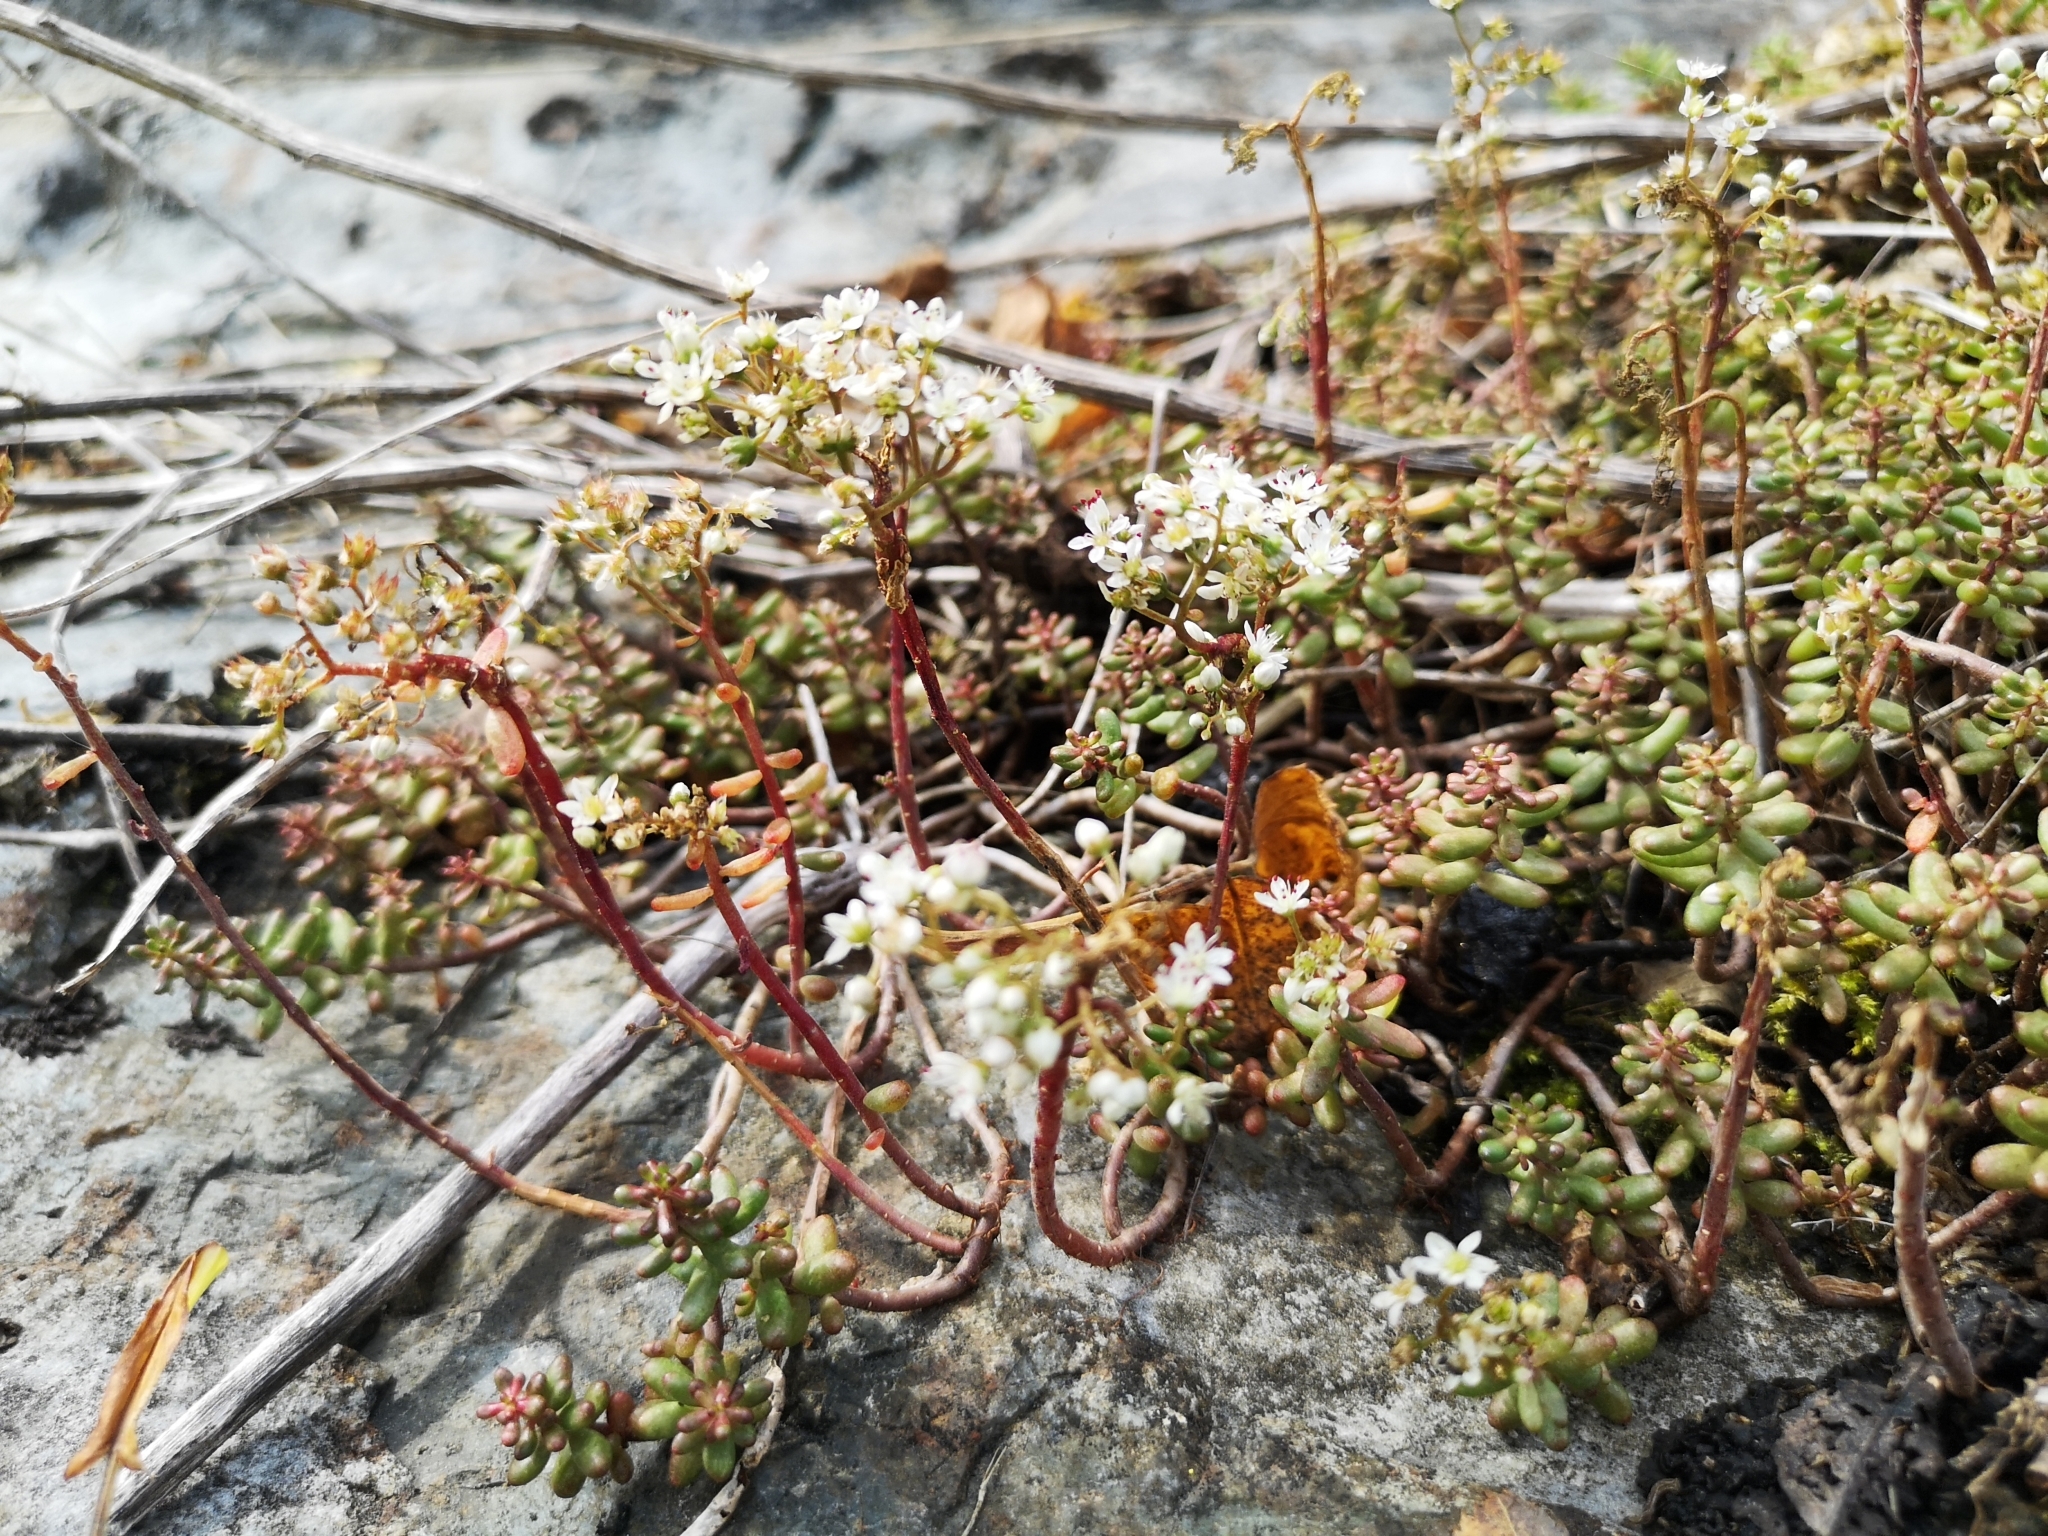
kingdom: Plantae
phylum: Tracheophyta
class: Magnoliopsida
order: Saxifragales
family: Crassulaceae
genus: Sedum
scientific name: Sedum album
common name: White stonecrop
